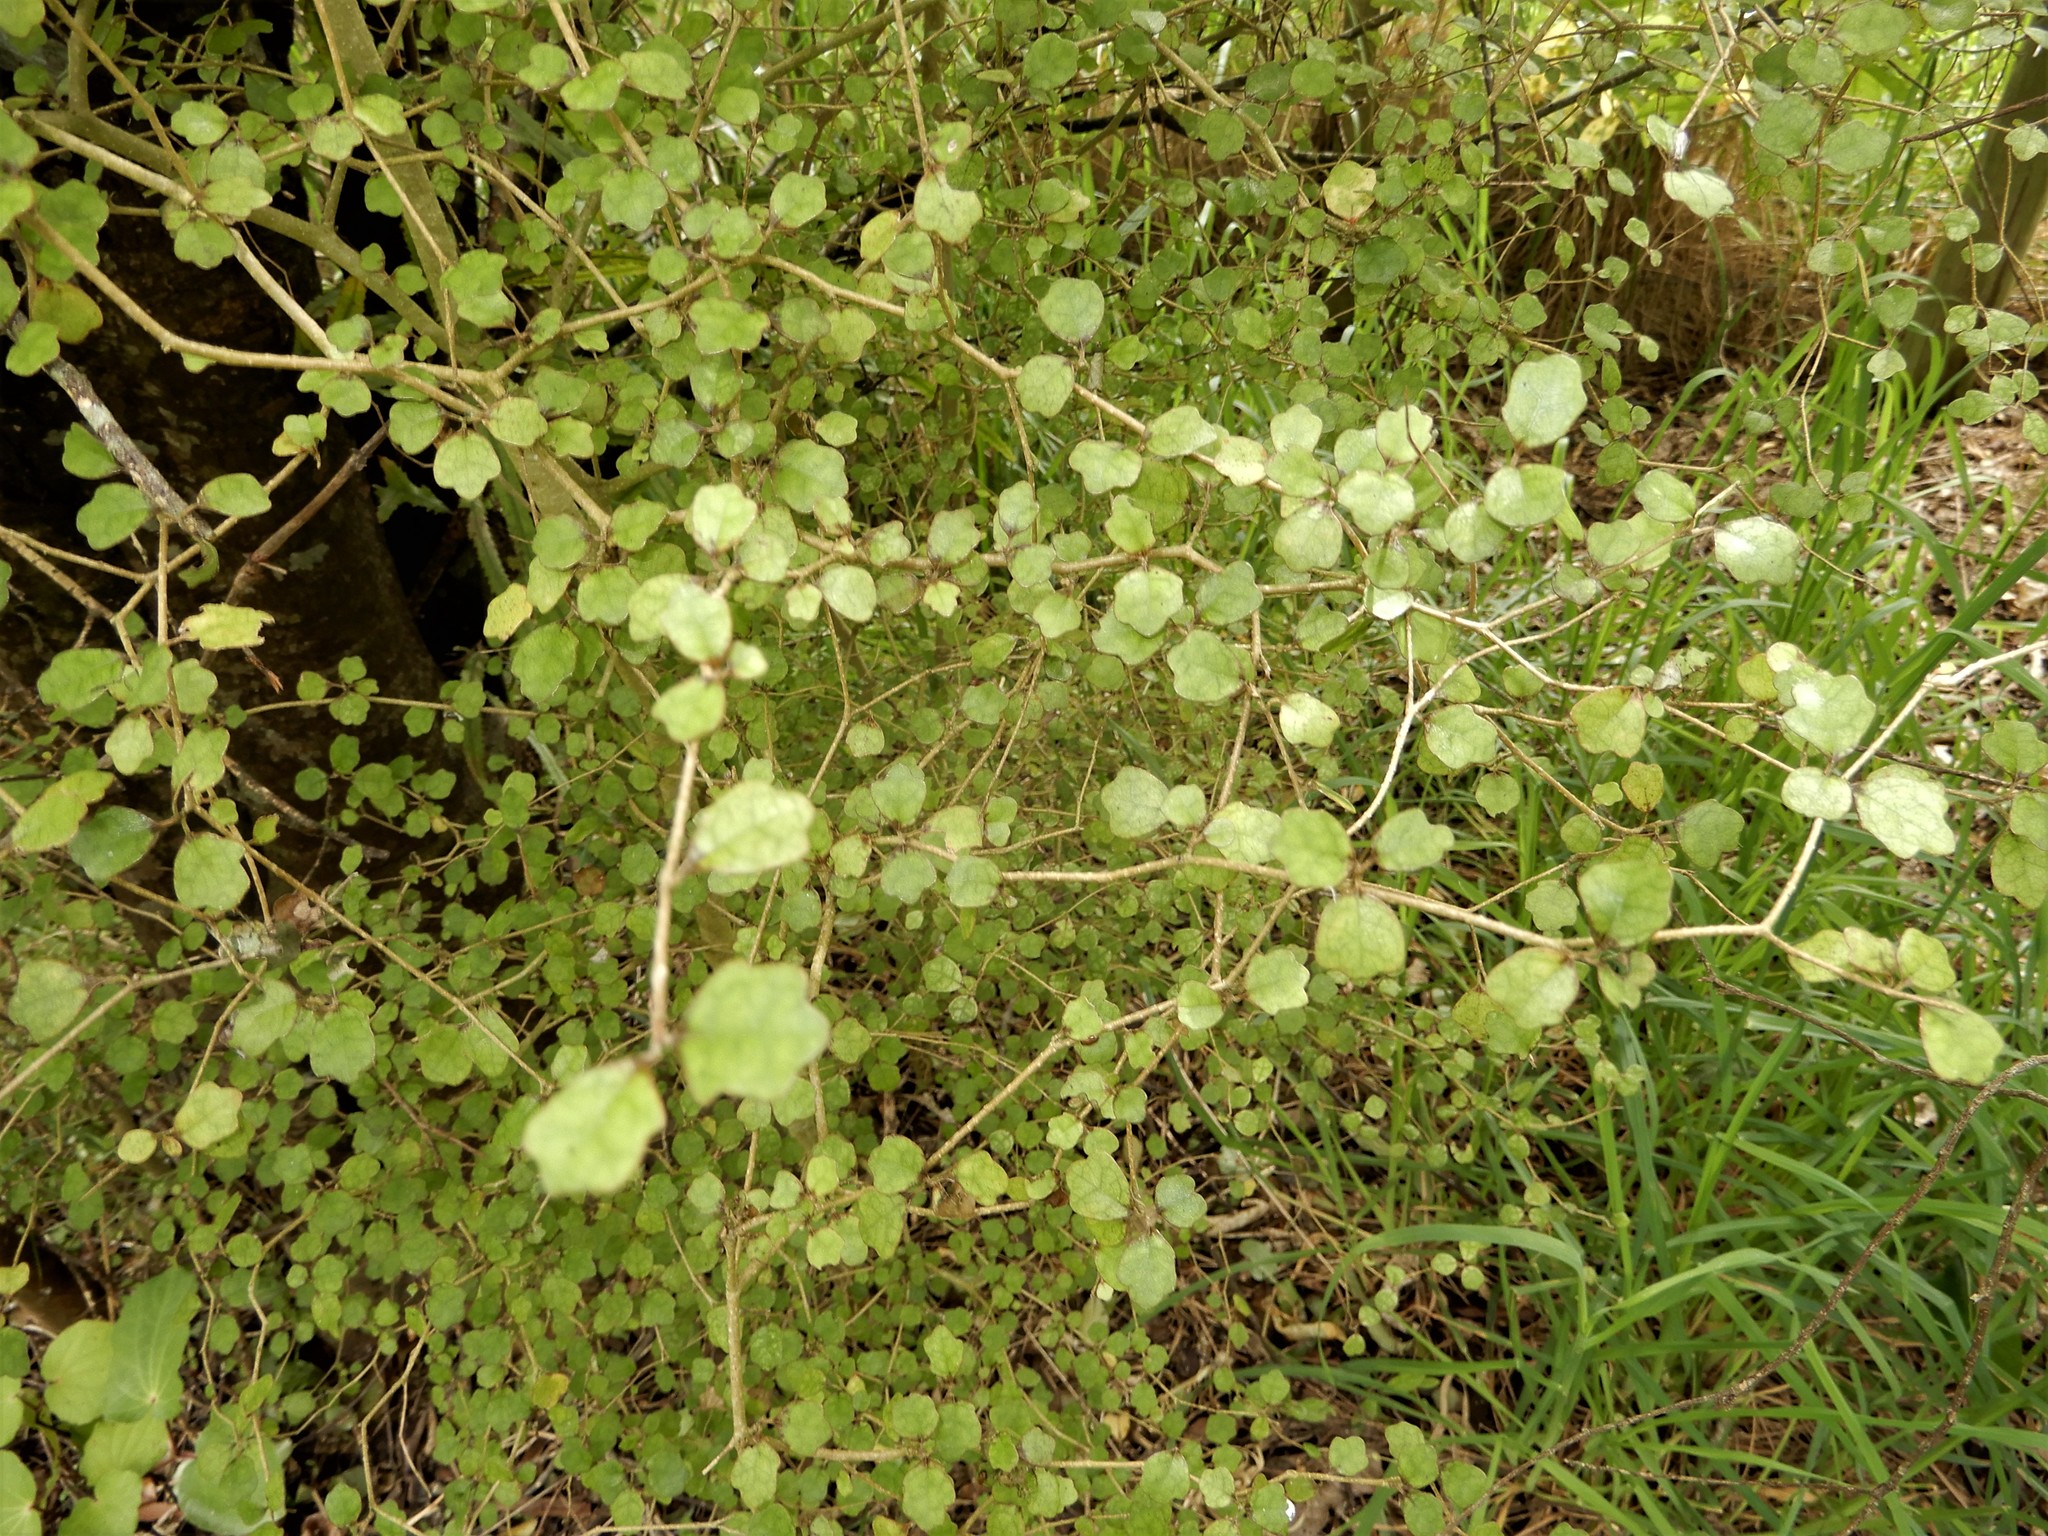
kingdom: Plantae
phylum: Tracheophyta
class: Magnoliopsida
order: Apiales
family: Pennantiaceae
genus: Pennantia
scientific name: Pennantia corymbosa
